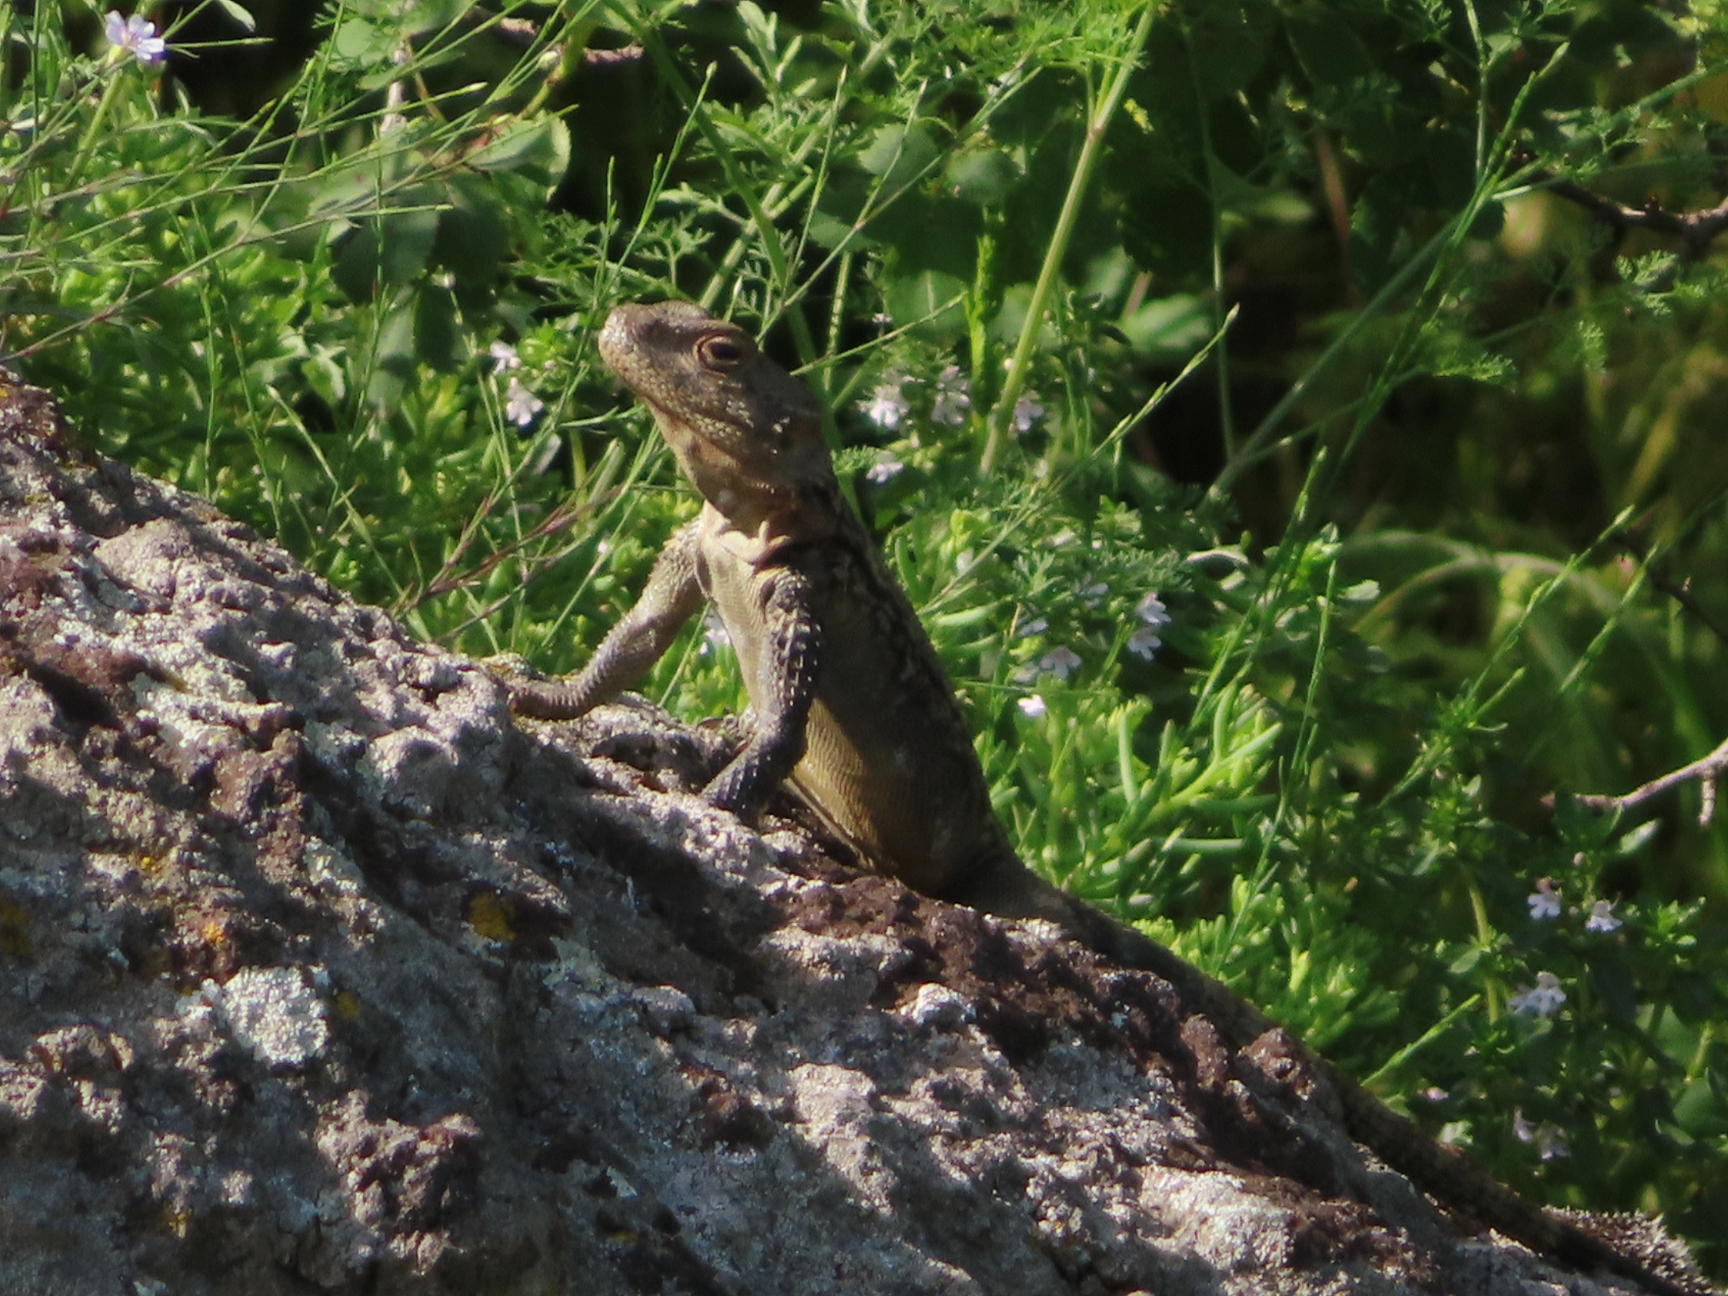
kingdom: Animalia
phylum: Chordata
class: Squamata
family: Agamidae
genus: Paralaudakia
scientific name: Paralaudakia caucasia
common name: Caucasian agama
